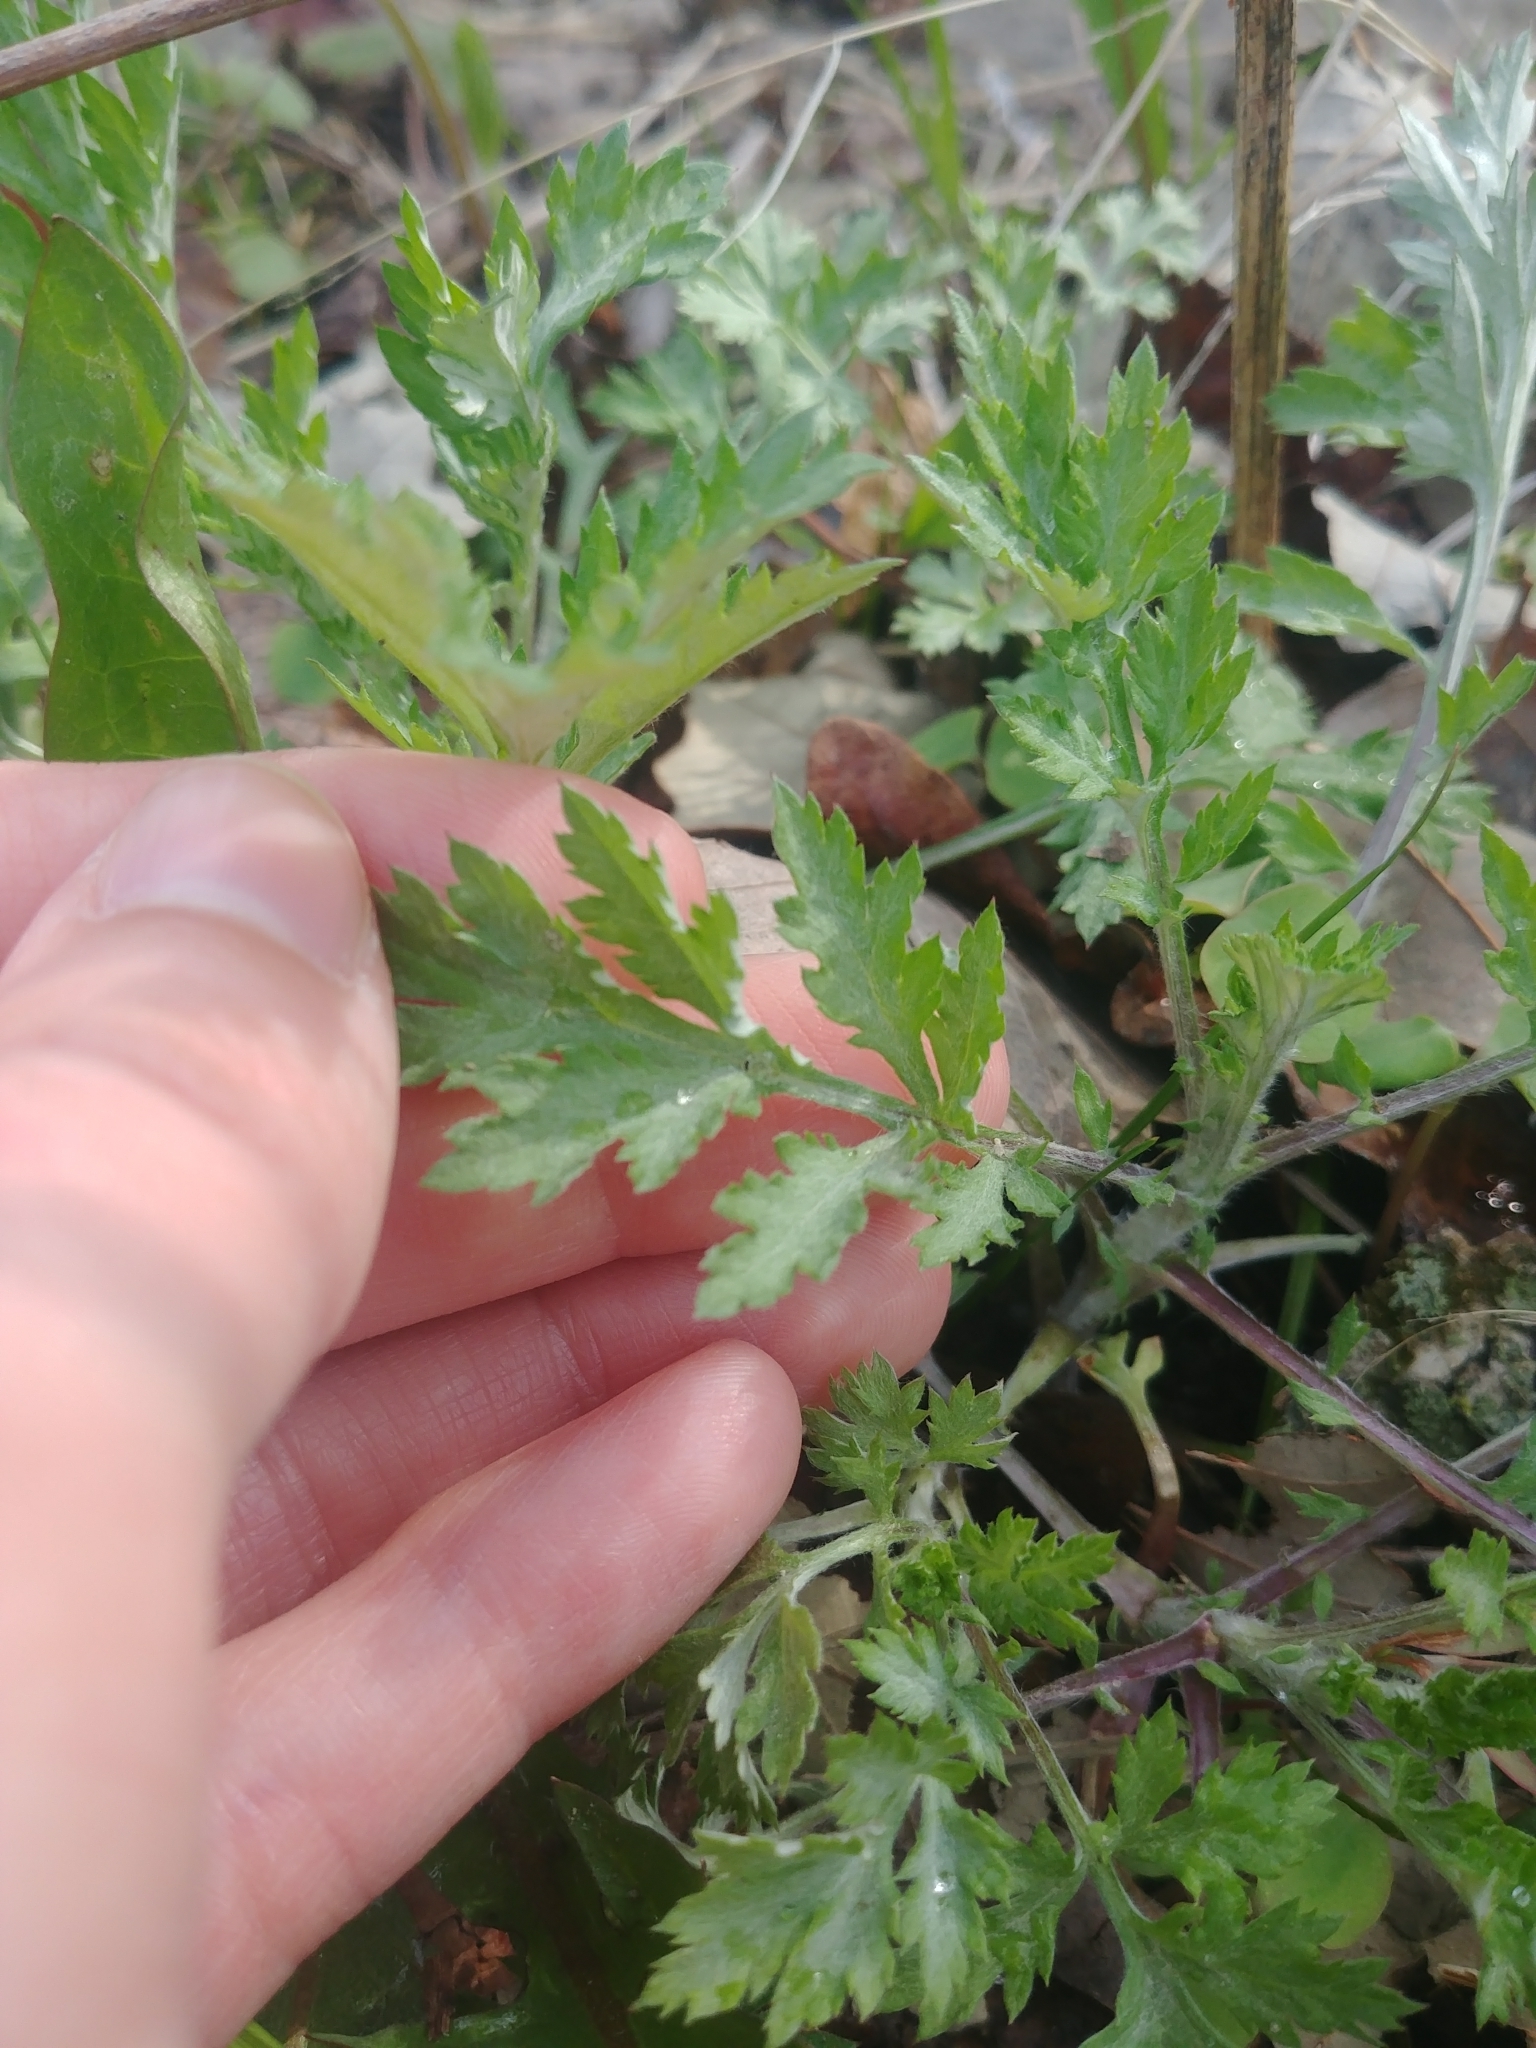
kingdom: Plantae
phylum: Tracheophyta
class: Magnoliopsida
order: Asterales
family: Asteraceae
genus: Artemisia
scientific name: Artemisia vulgaris
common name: Mugwort
